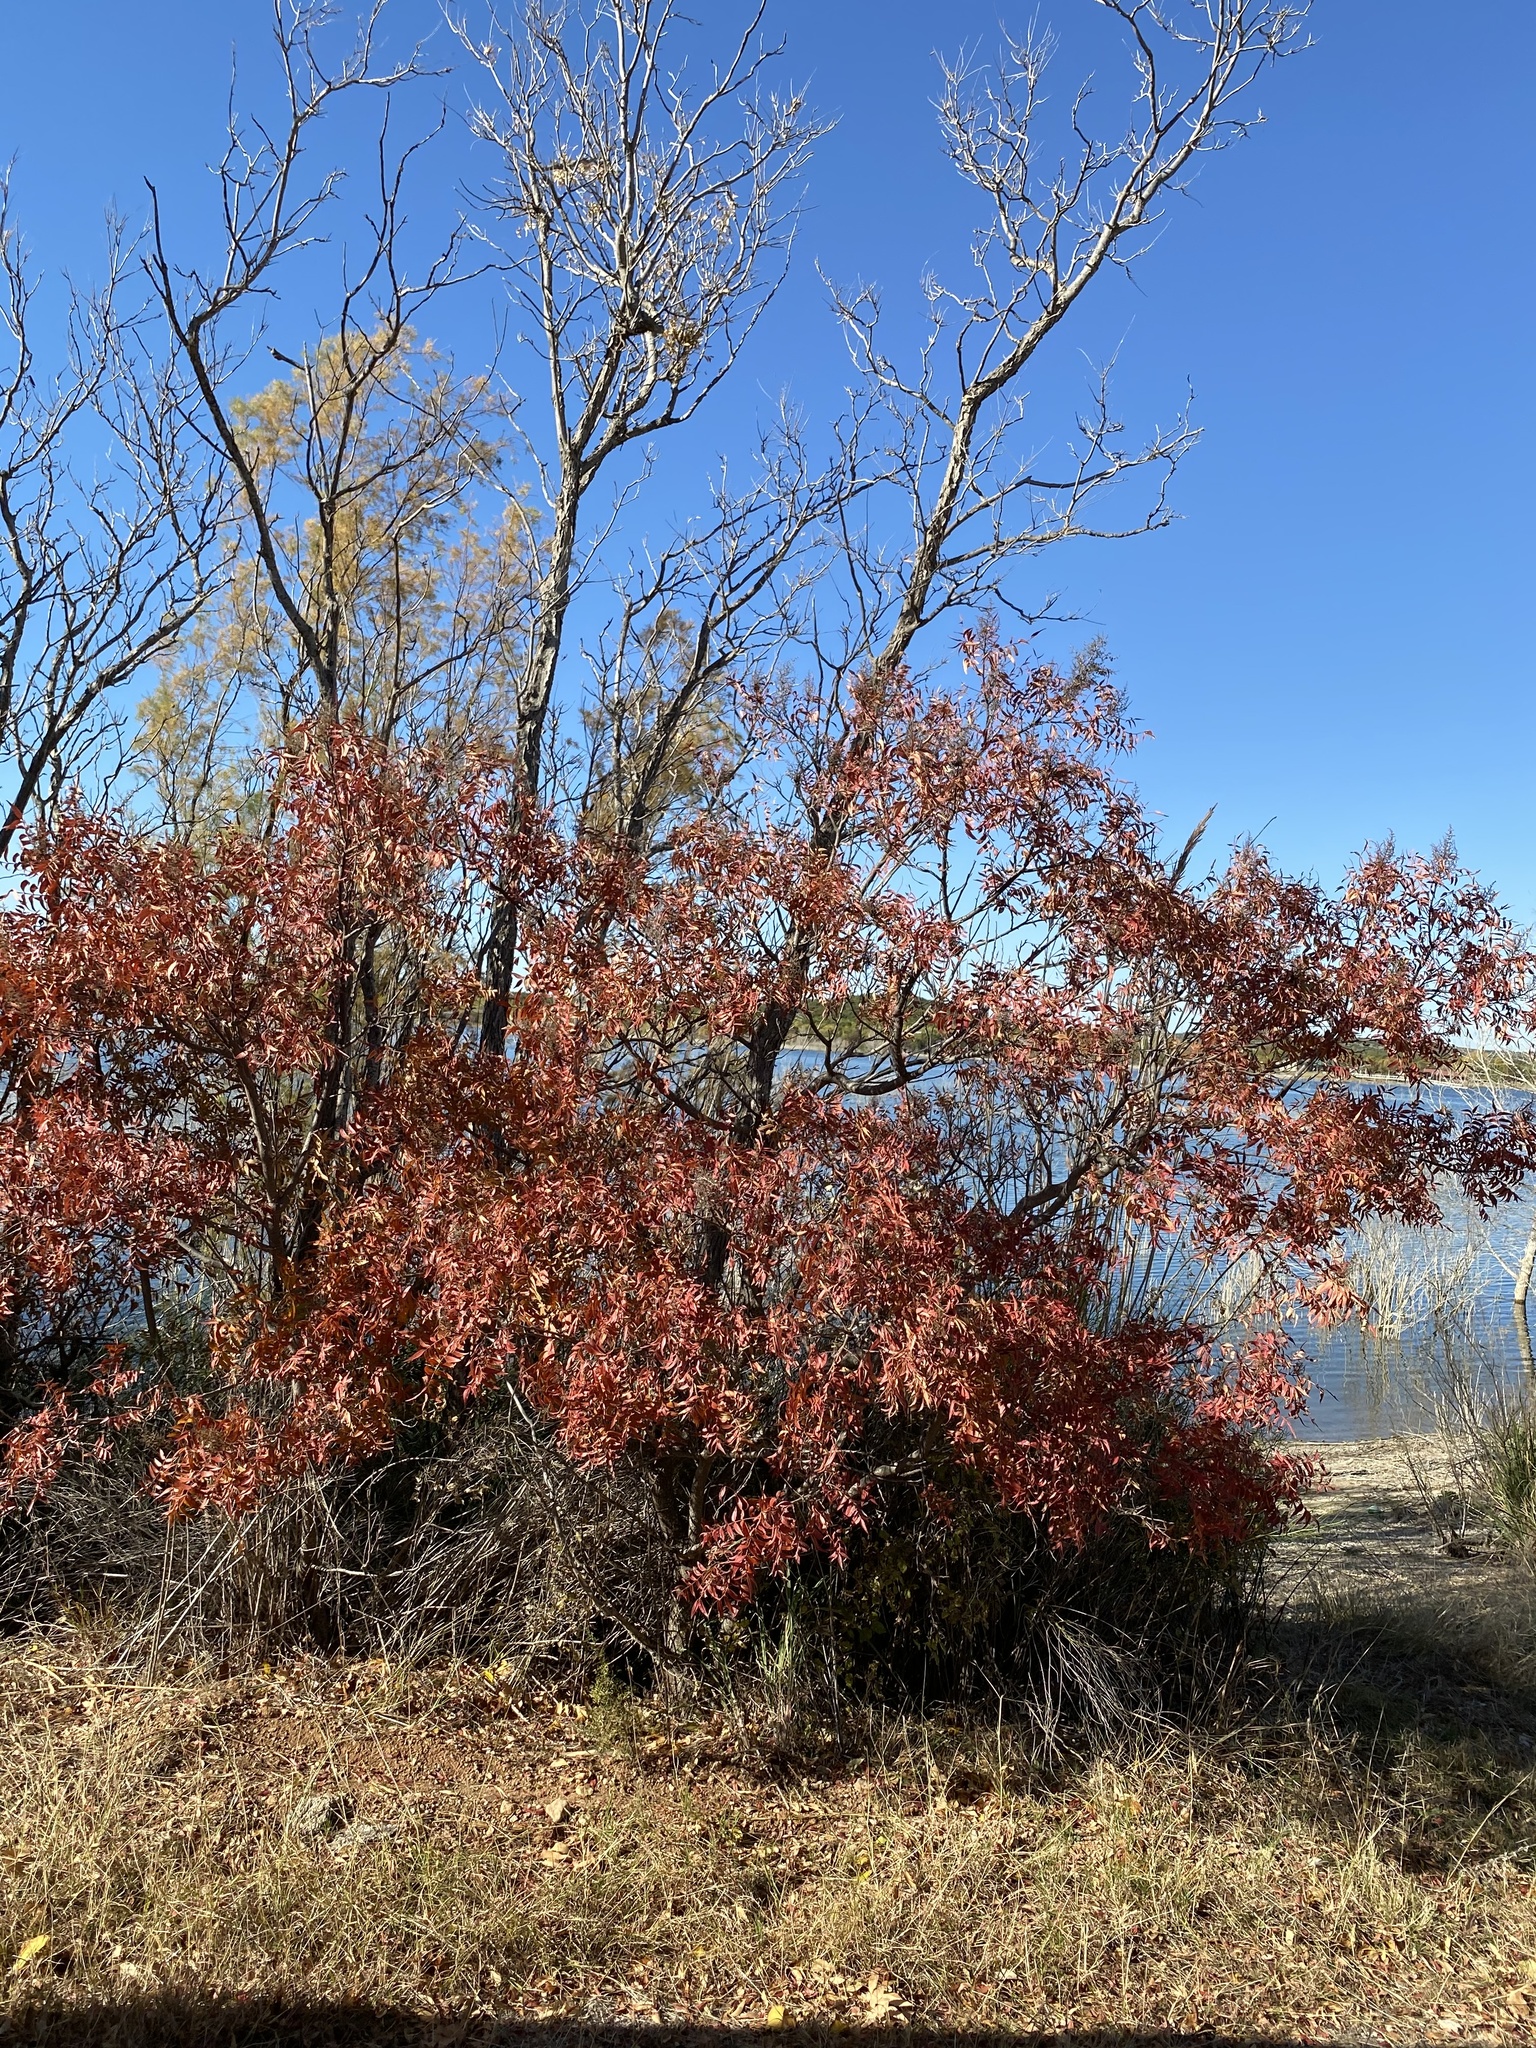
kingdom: Plantae
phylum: Tracheophyta
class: Magnoliopsida
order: Sapindales
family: Anacardiaceae
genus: Rhus
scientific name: Rhus lanceolata
